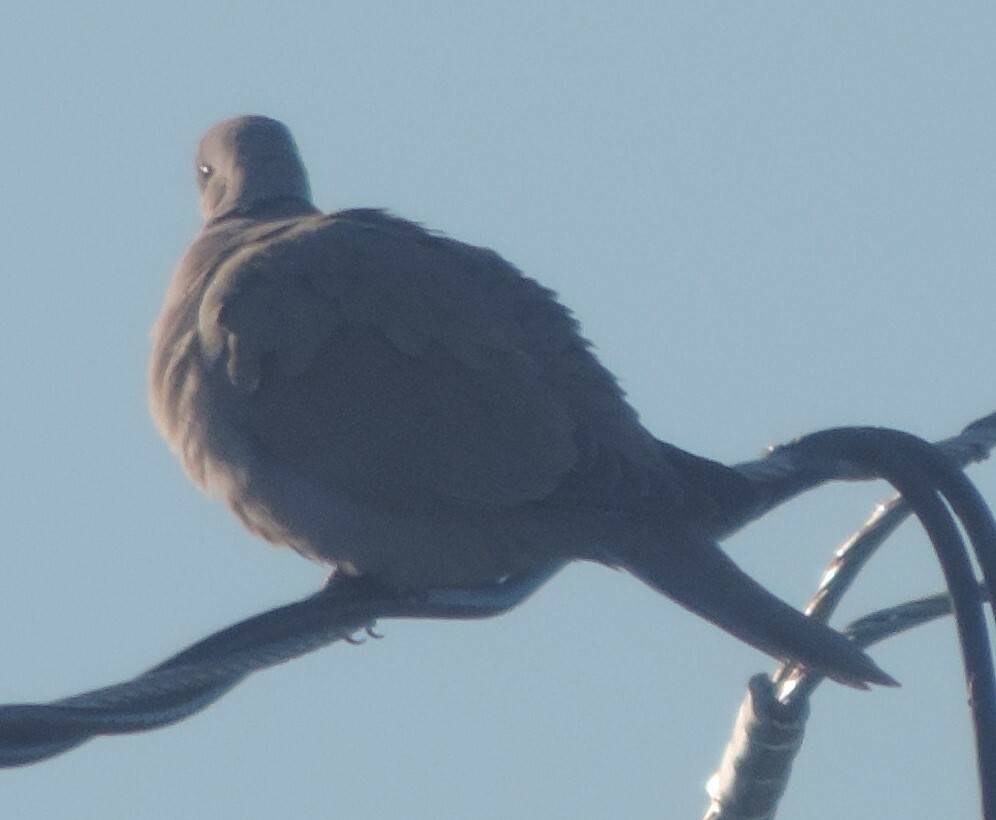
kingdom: Animalia
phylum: Chordata
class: Aves
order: Columbiformes
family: Columbidae
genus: Streptopelia
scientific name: Streptopelia decaocto
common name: Eurasian collared dove
